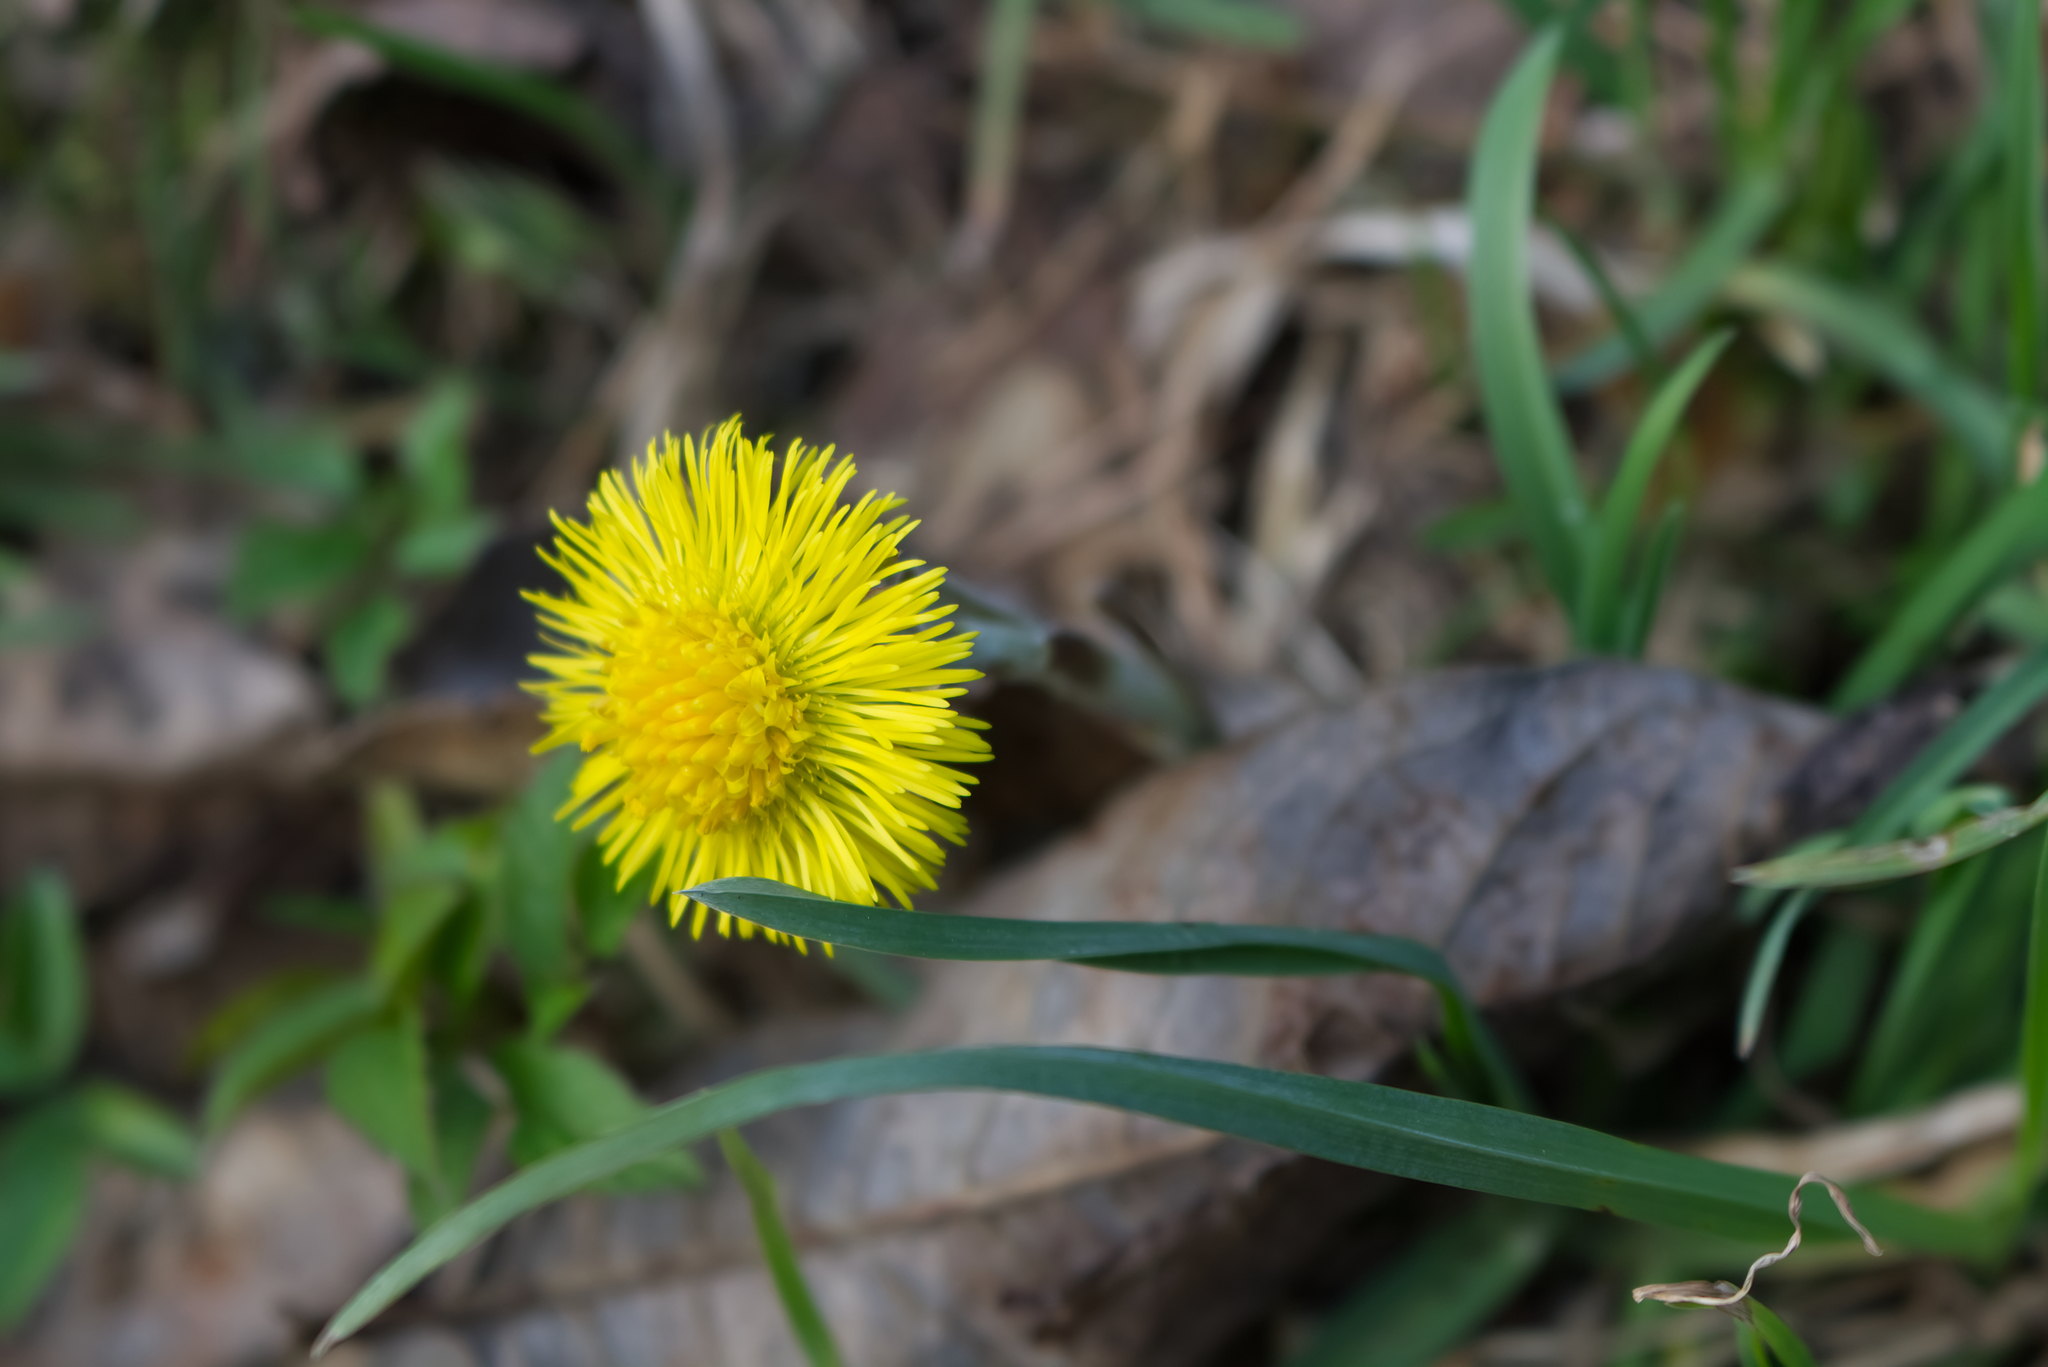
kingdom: Plantae
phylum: Tracheophyta
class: Magnoliopsida
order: Asterales
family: Asteraceae
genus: Tussilago
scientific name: Tussilago farfara
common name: Coltsfoot
